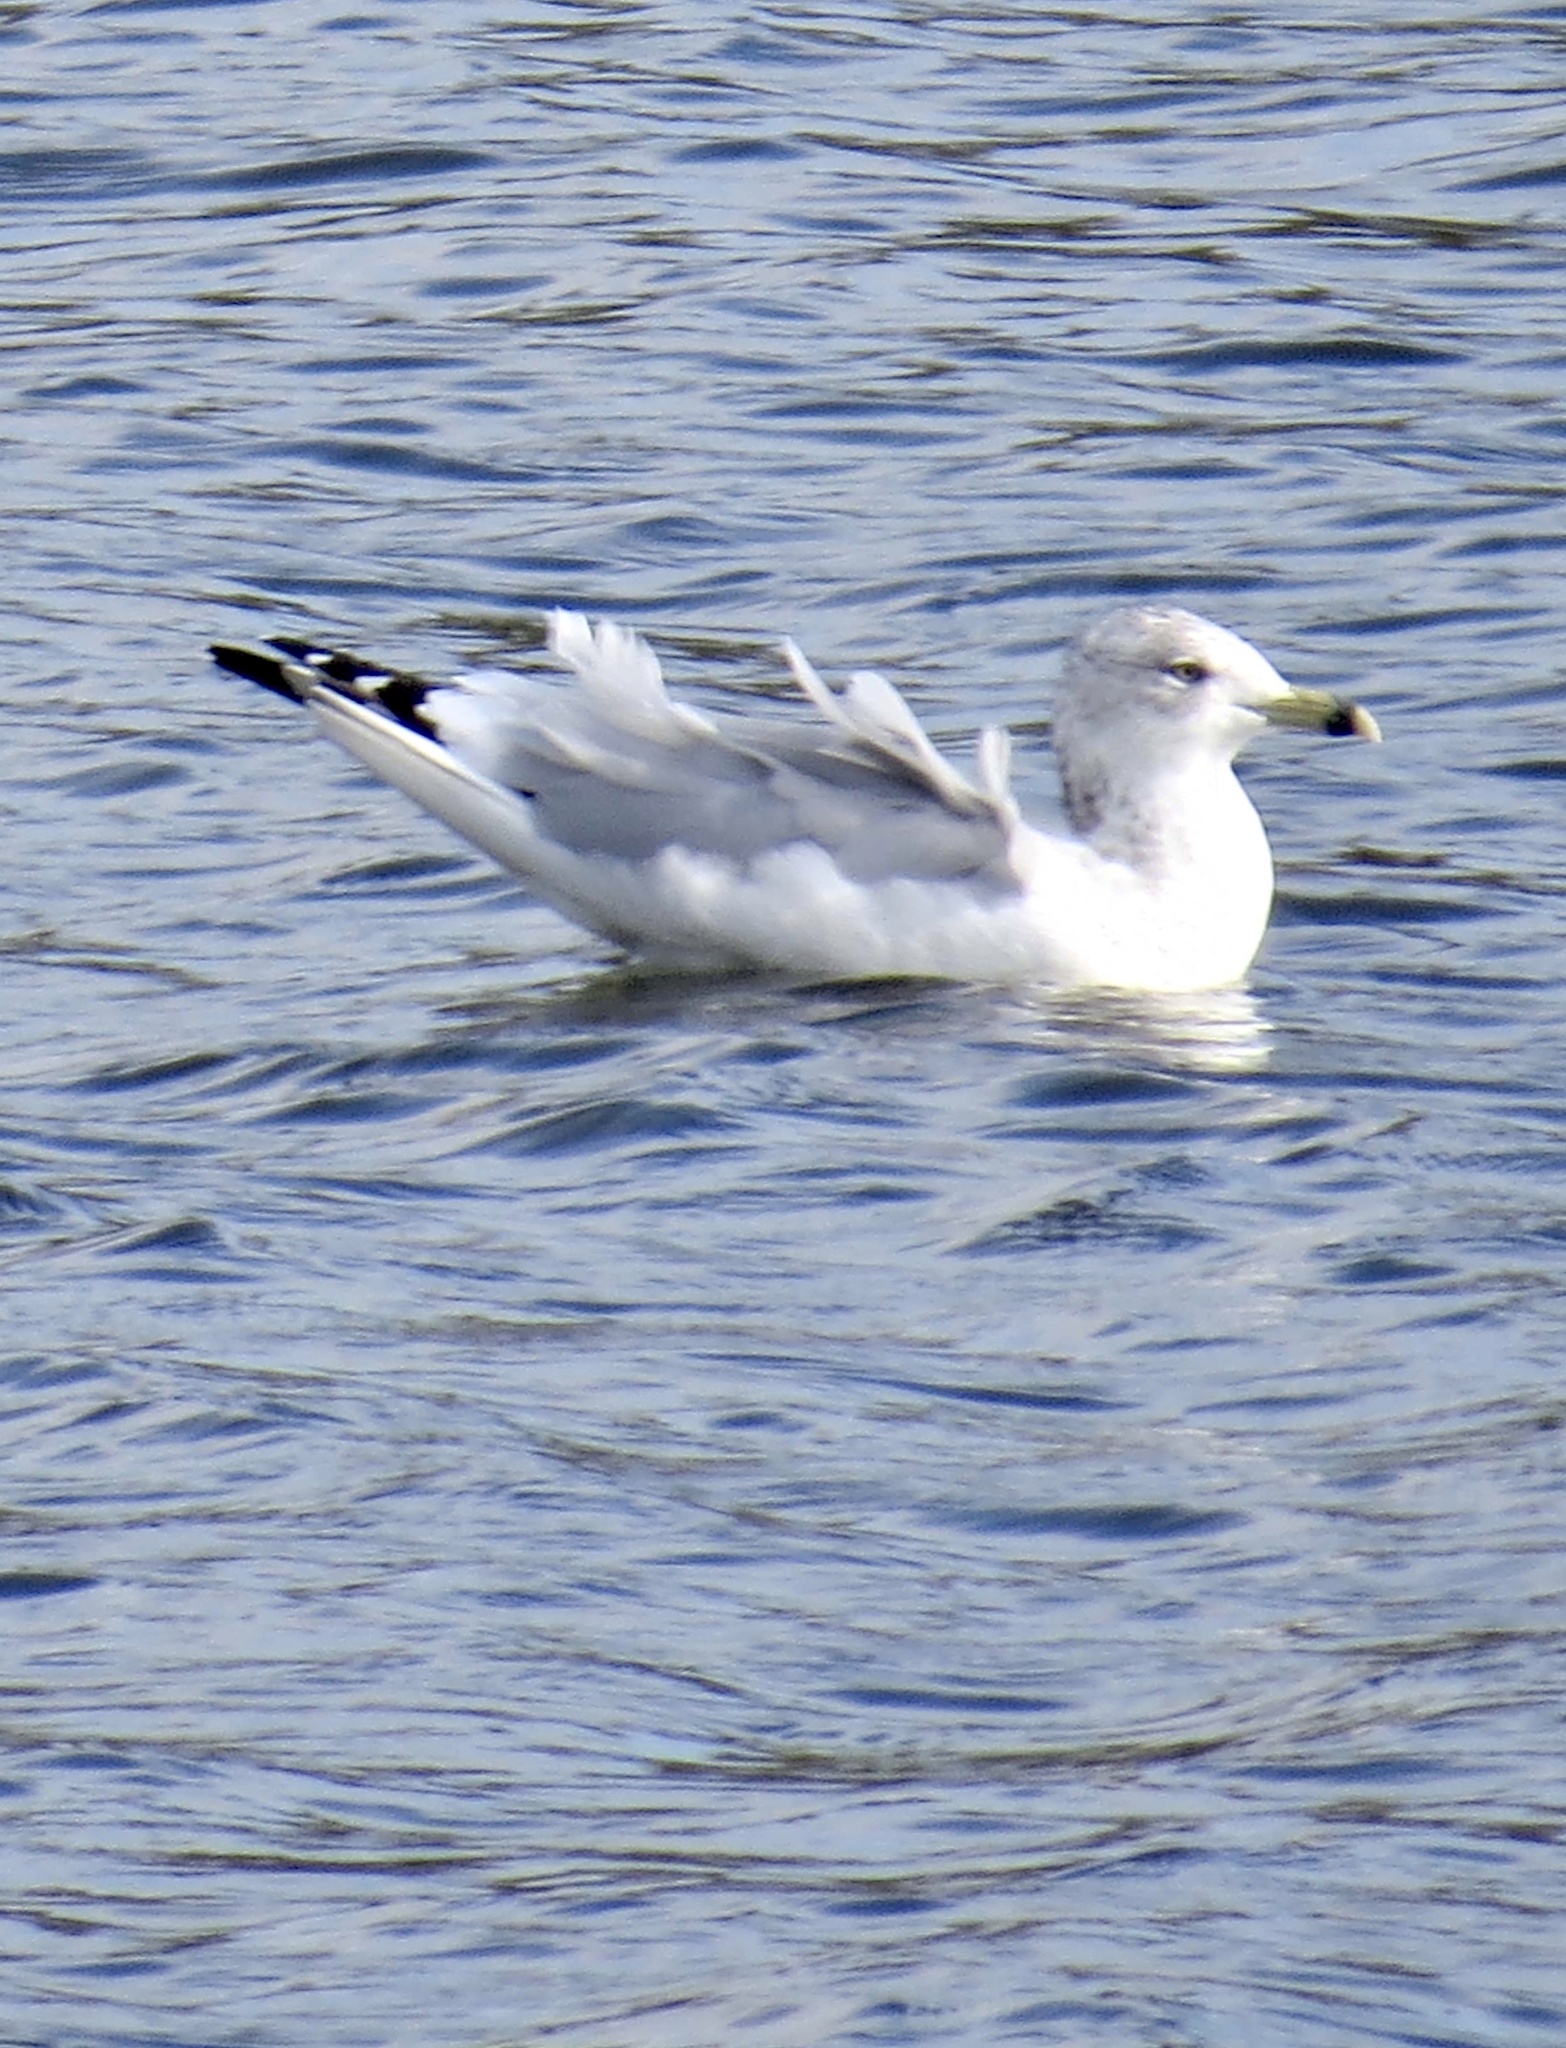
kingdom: Animalia
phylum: Chordata
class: Aves
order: Charadriiformes
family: Laridae
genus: Larus
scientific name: Larus delawarensis
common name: Ring-billed gull
